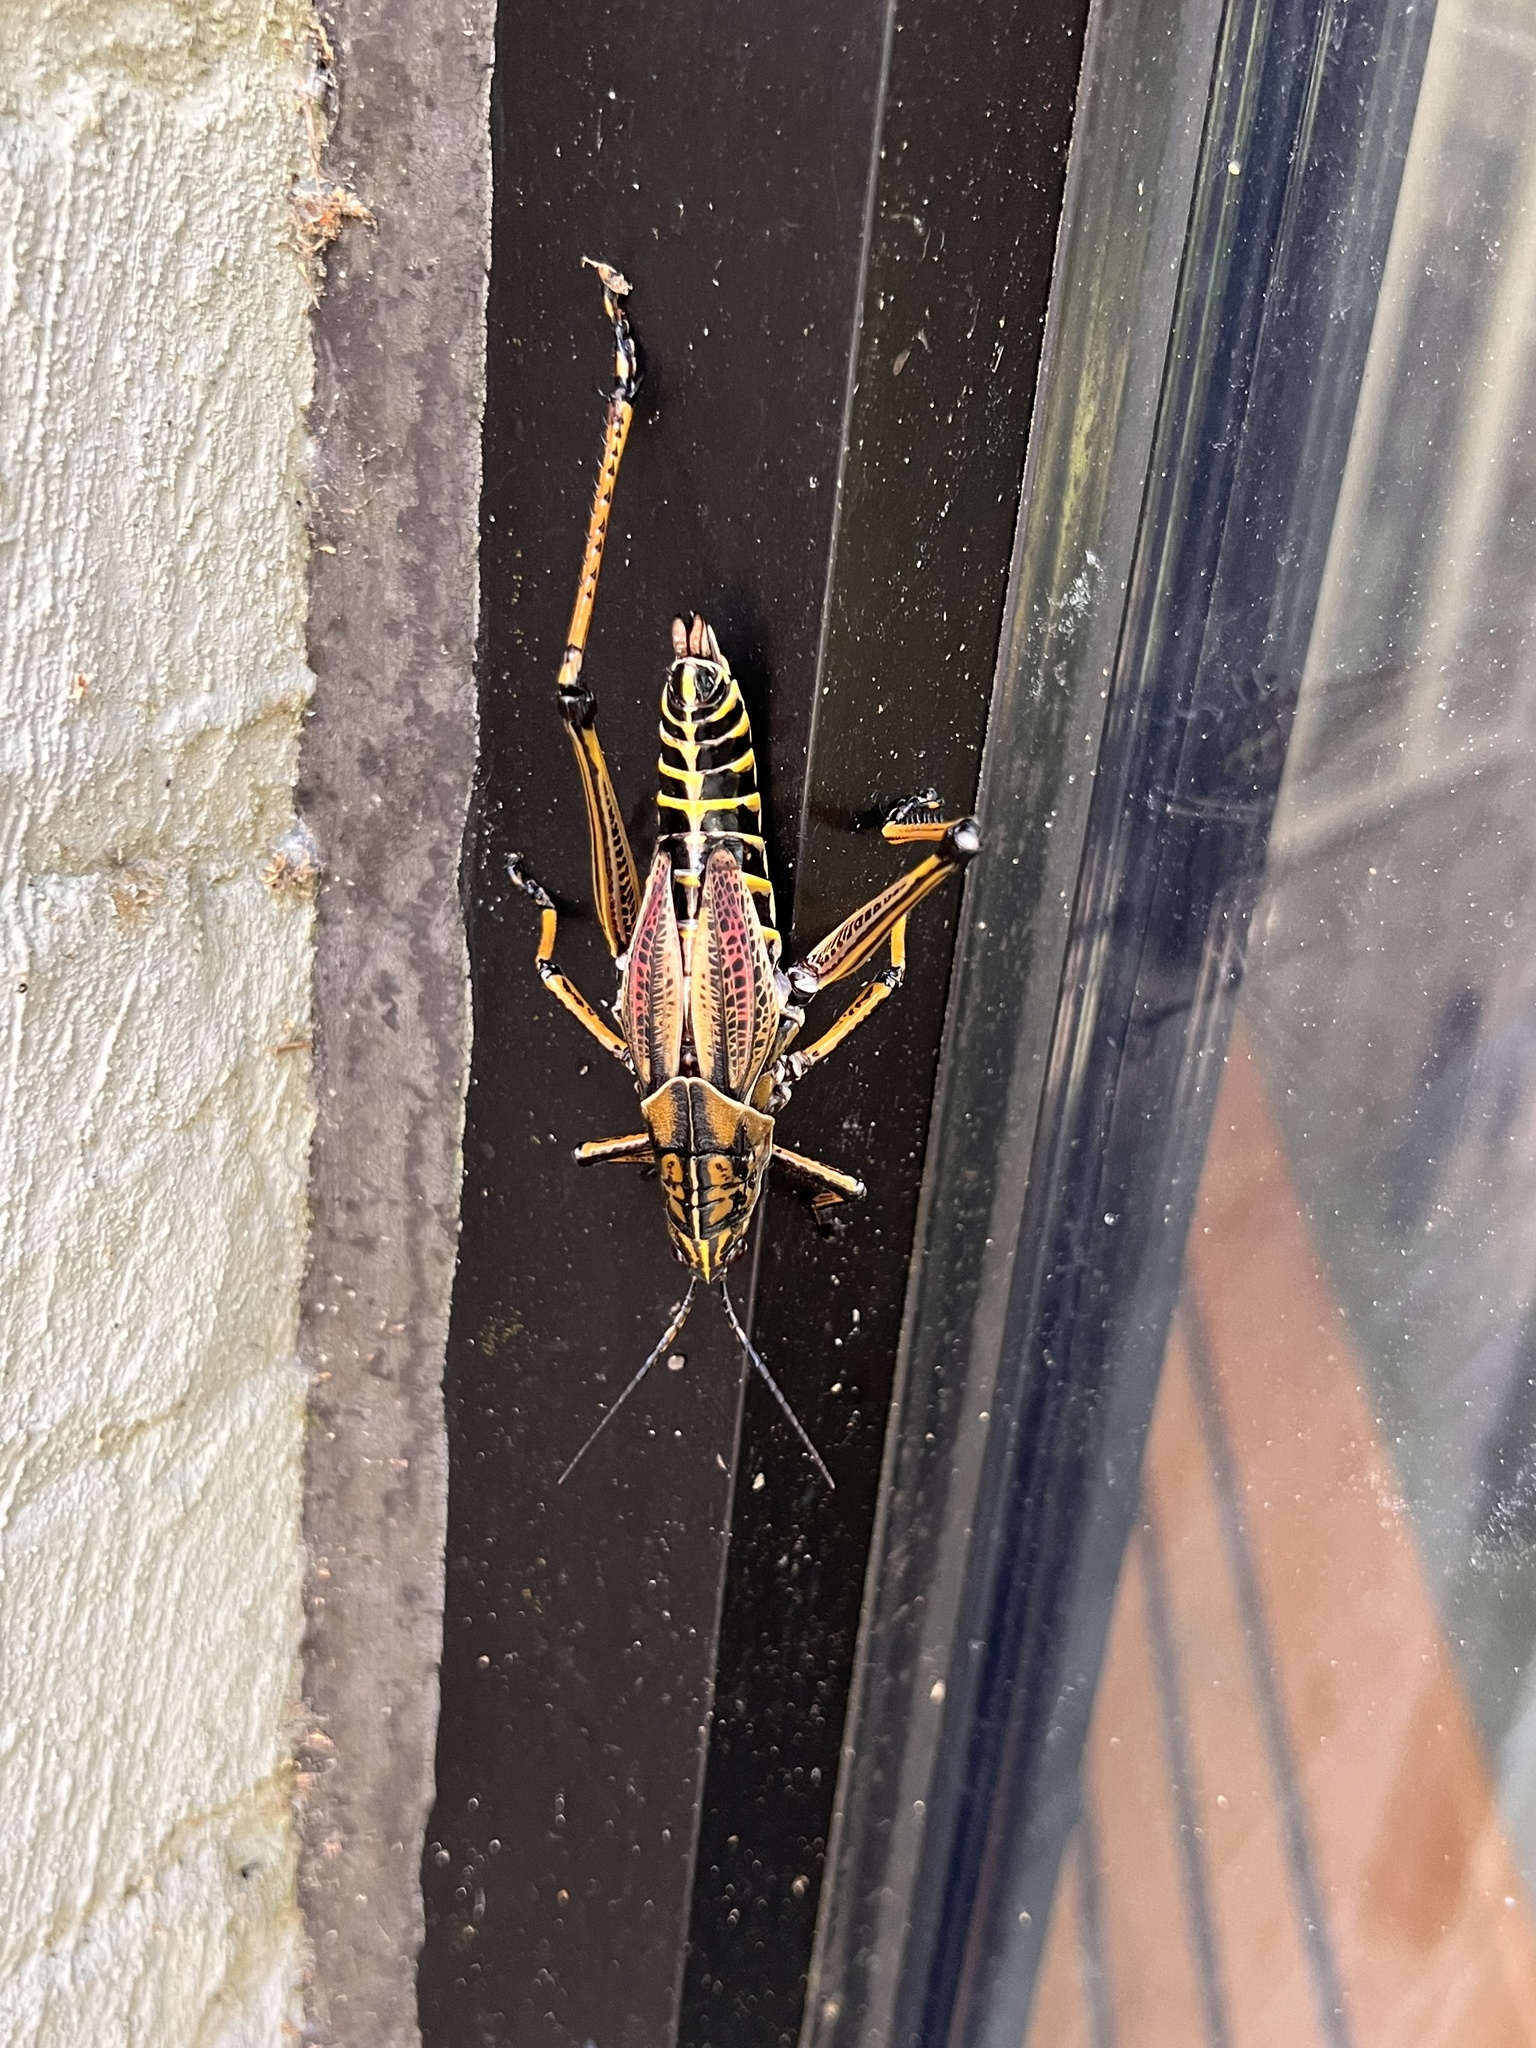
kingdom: Animalia
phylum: Arthropoda
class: Insecta
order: Orthoptera
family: Romaleidae
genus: Romalea
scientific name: Romalea microptera
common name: Eastern lubber grasshopper
